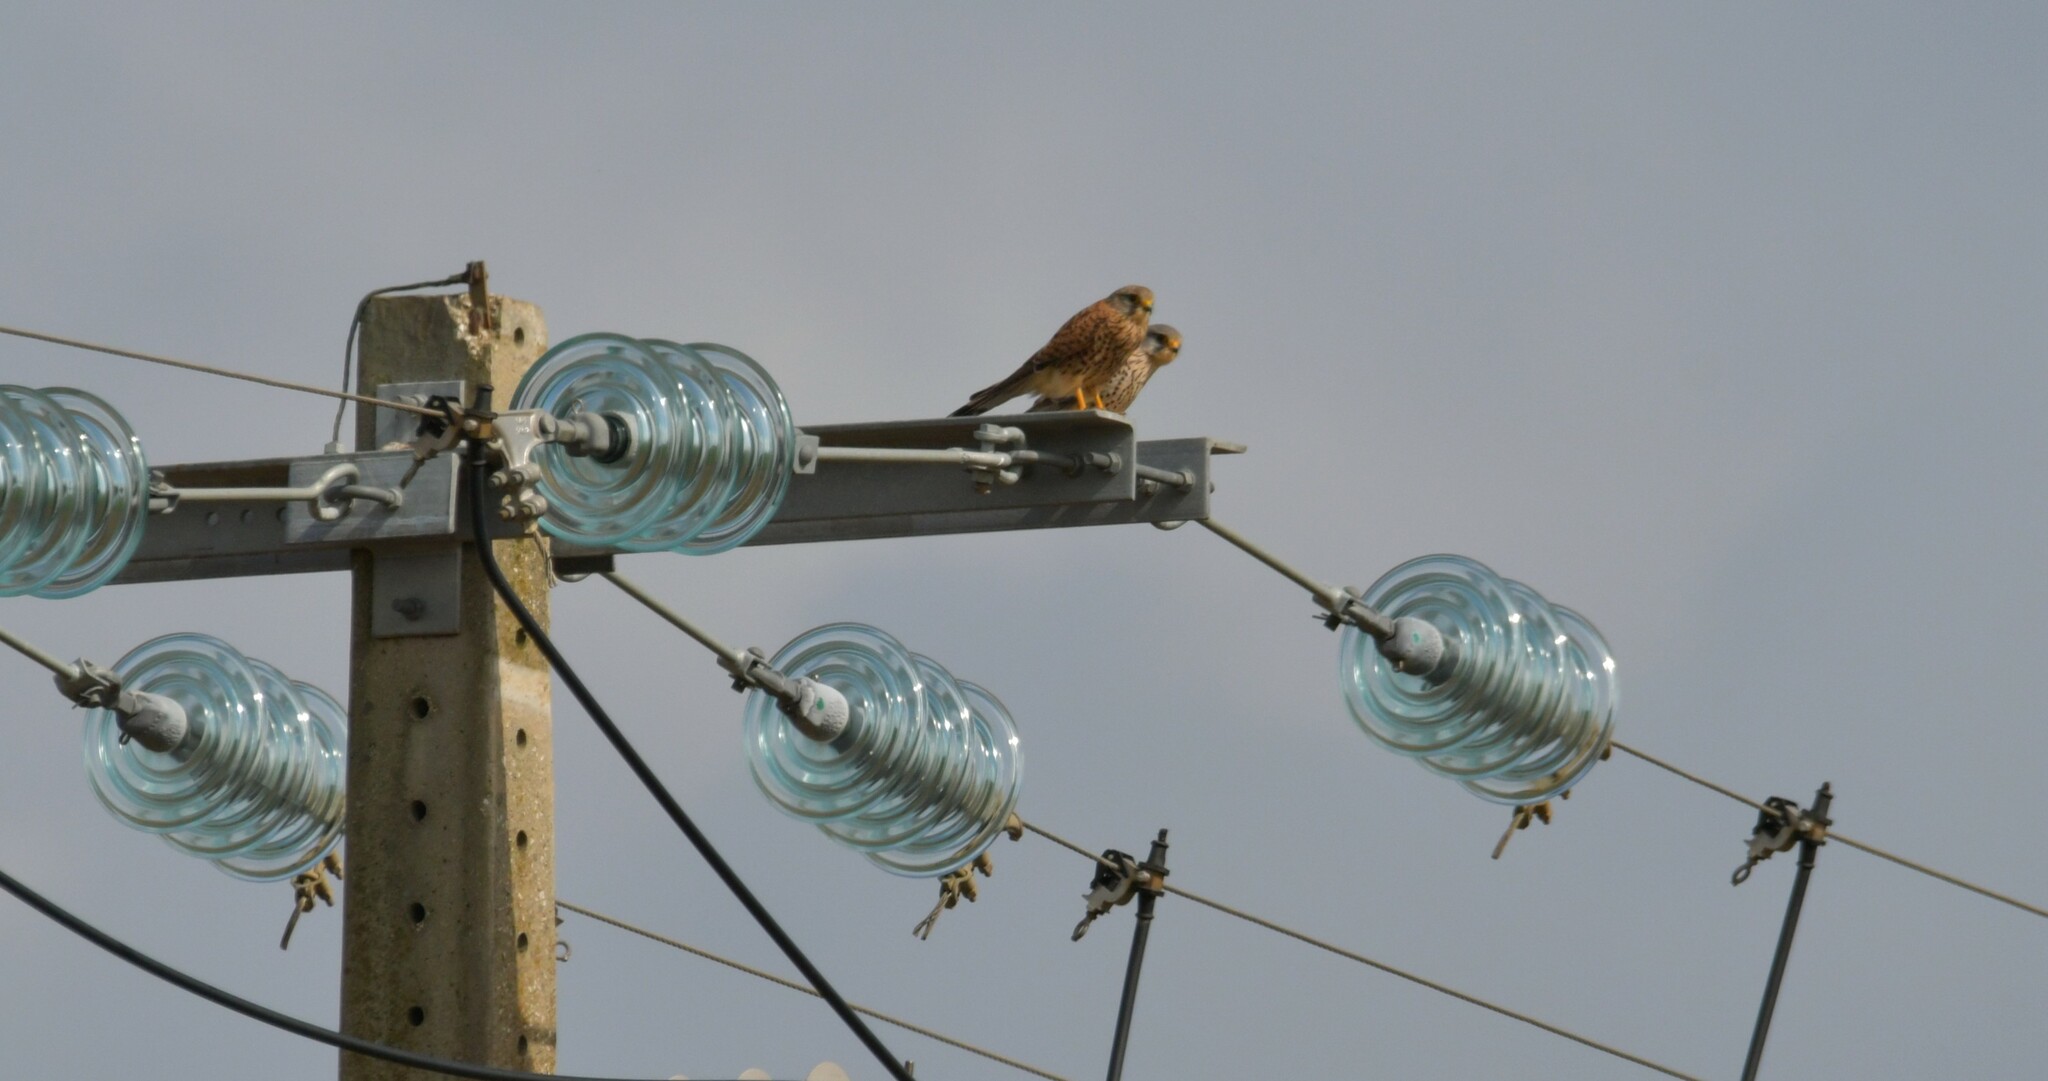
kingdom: Animalia
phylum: Chordata
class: Aves
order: Falconiformes
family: Falconidae
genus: Falco
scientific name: Falco tinnunculus
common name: Common kestrel
